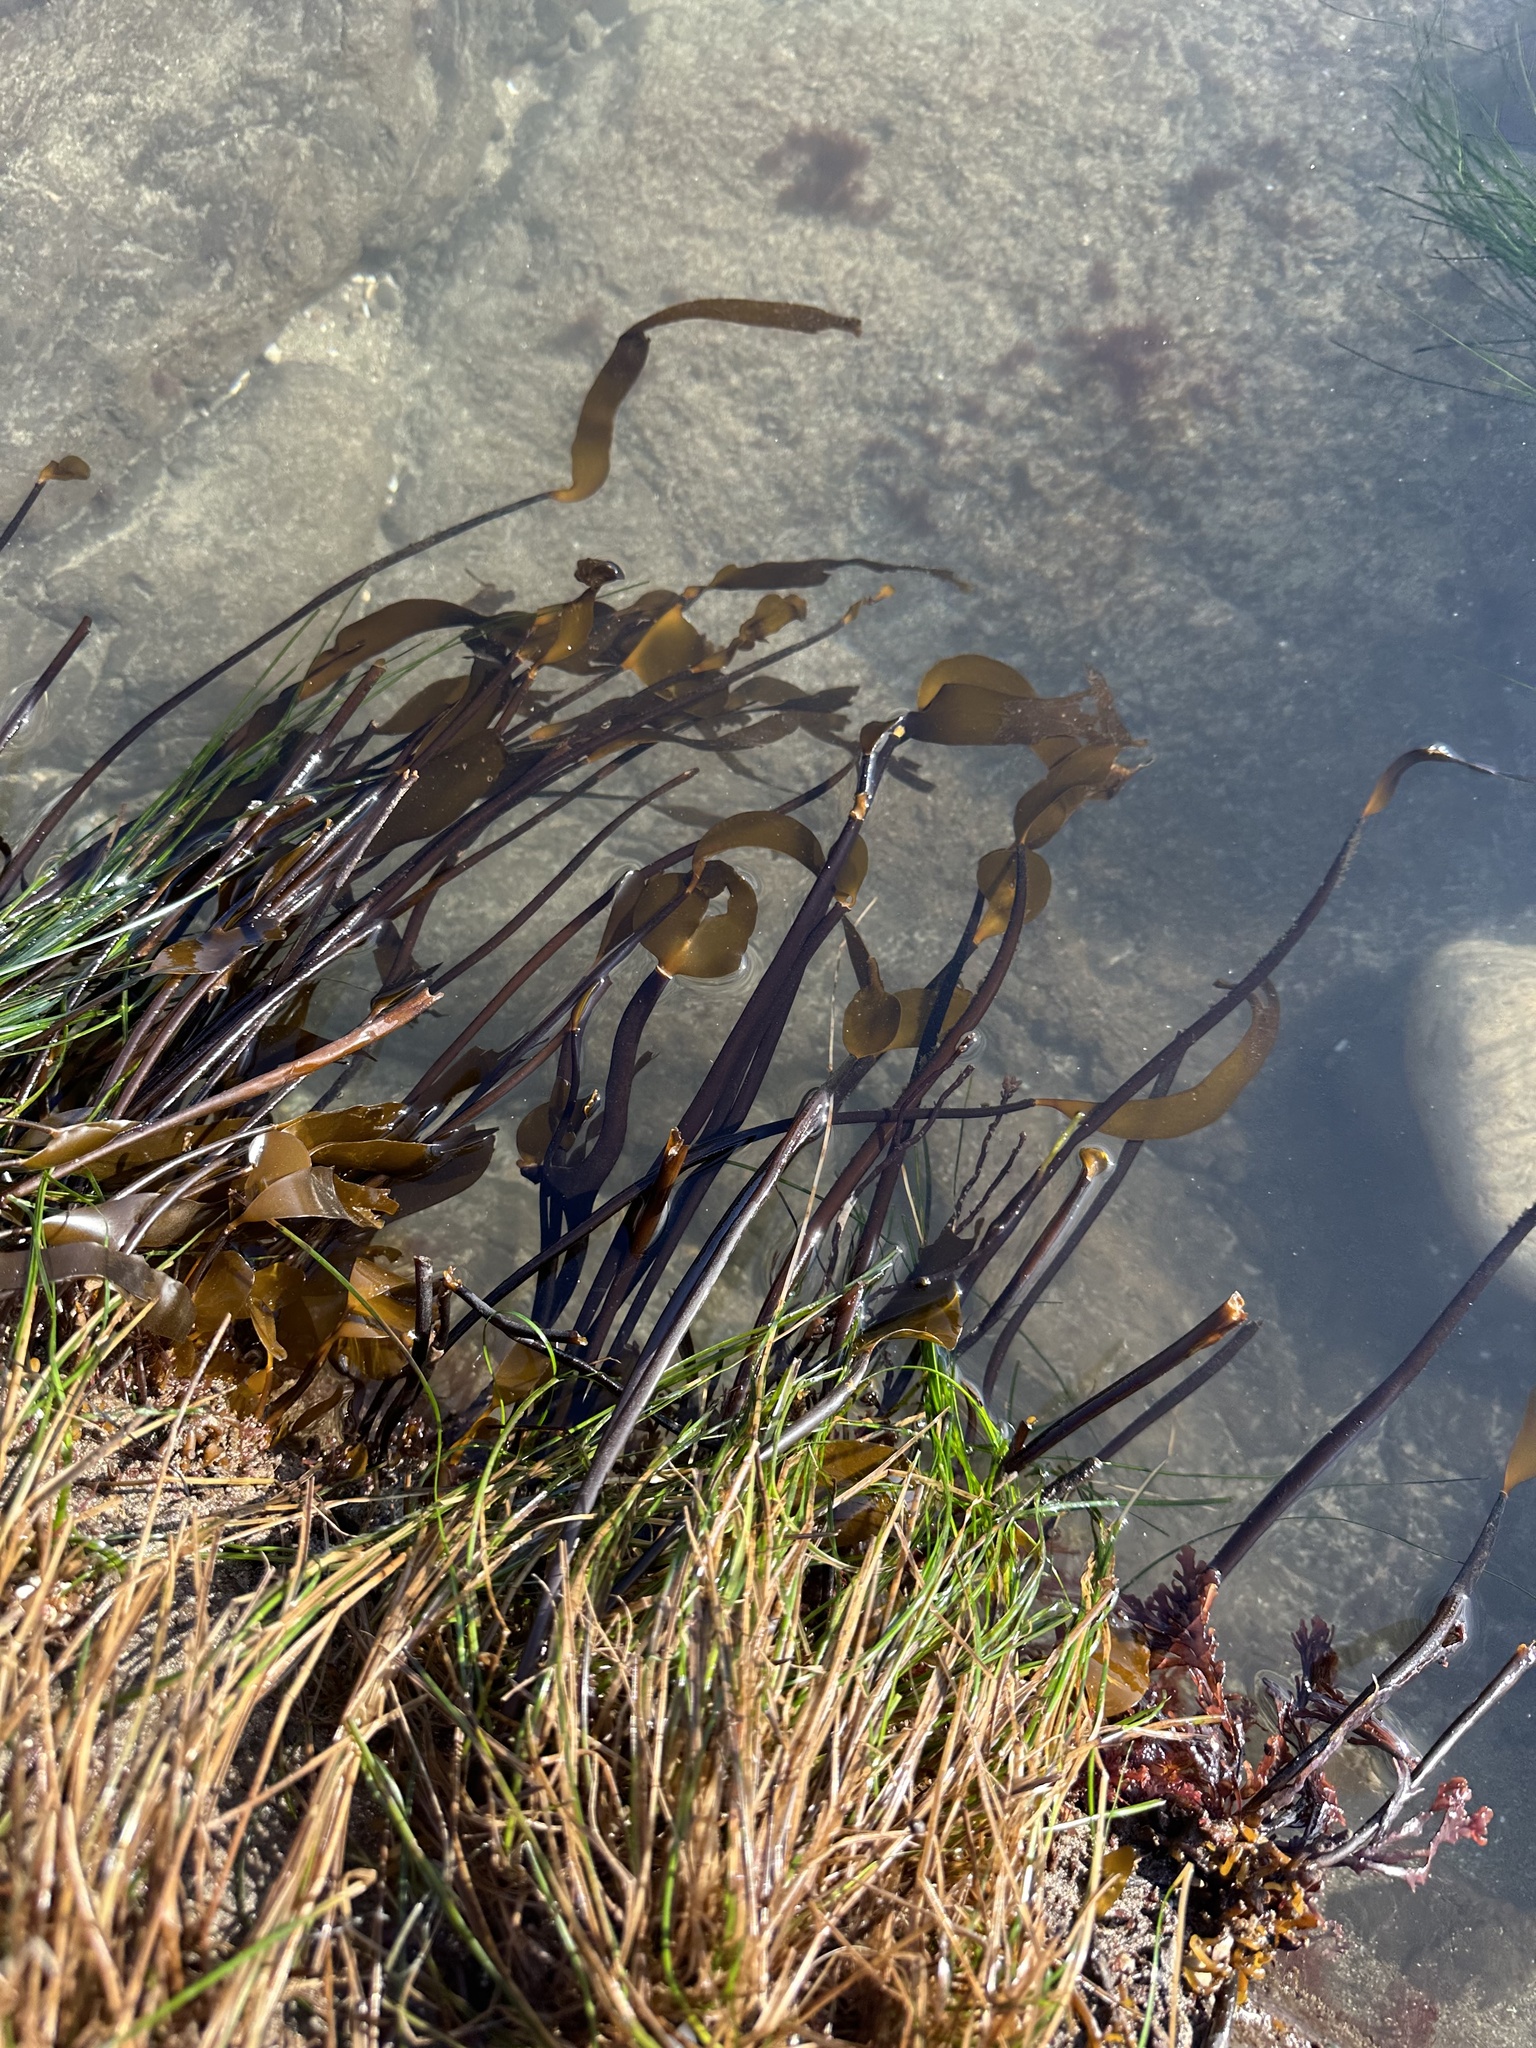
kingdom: Chromista
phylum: Ochrophyta
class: Phaeophyceae
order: Laminariales
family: Laminariaceae
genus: Laminaria
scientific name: Laminaria sinclairii
